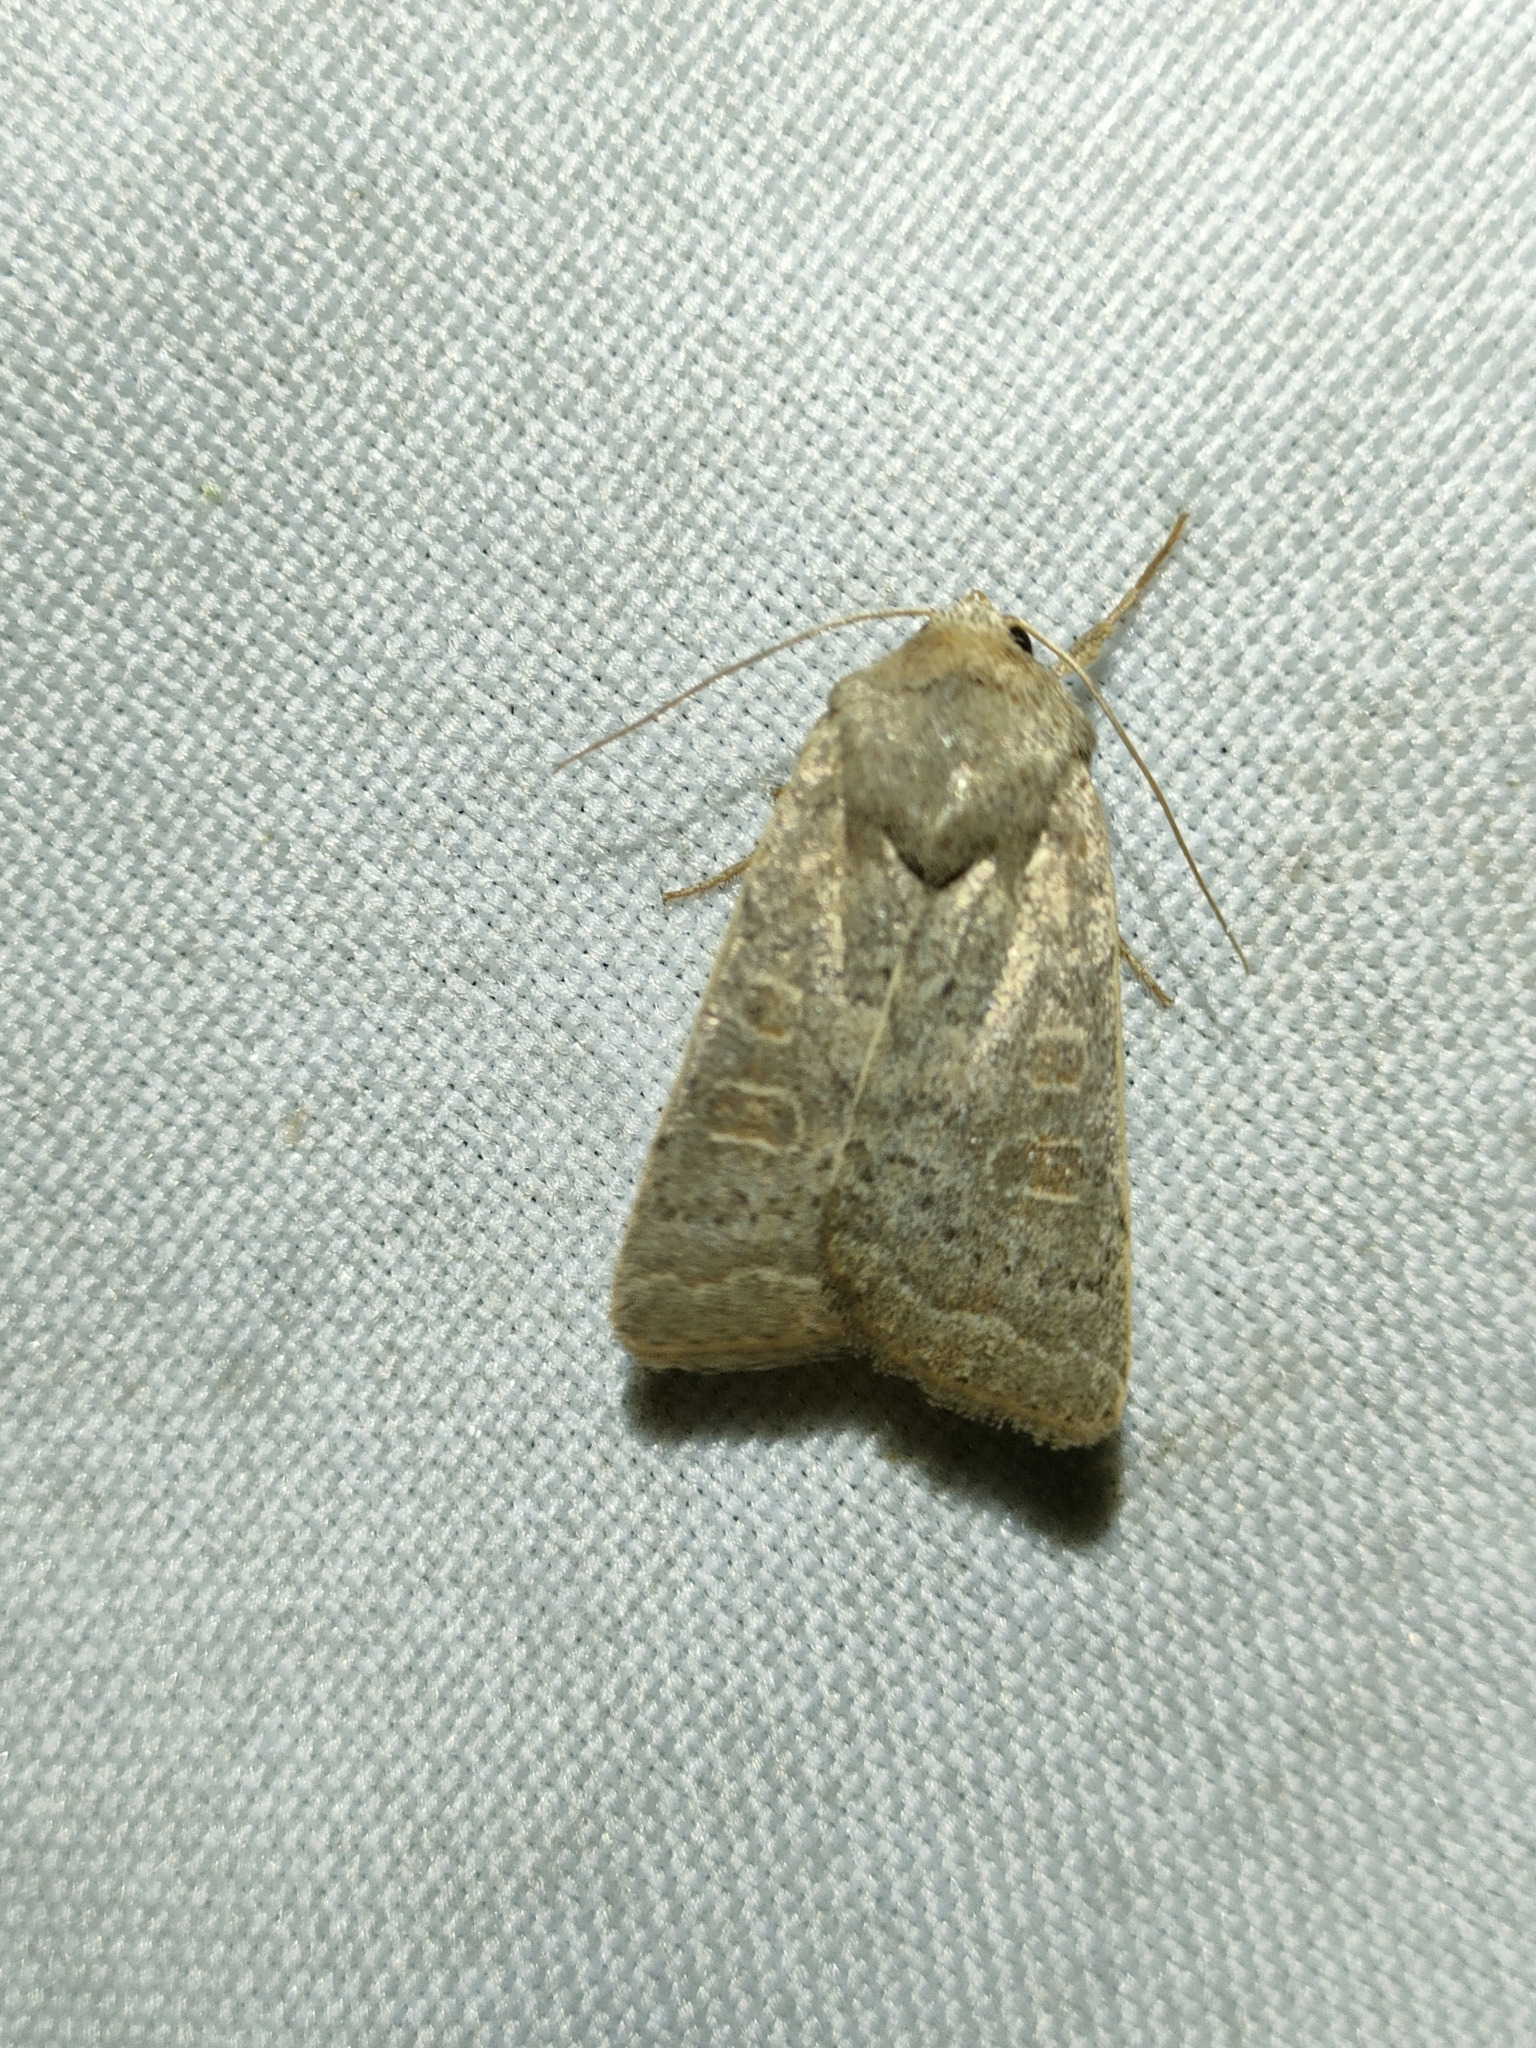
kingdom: Animalia
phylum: Arthropoda
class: Insecta
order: Lepidoptera
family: Noctuidae
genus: Hoplodrina
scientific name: Hoplodrina ambigua
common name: Vine's rustic
